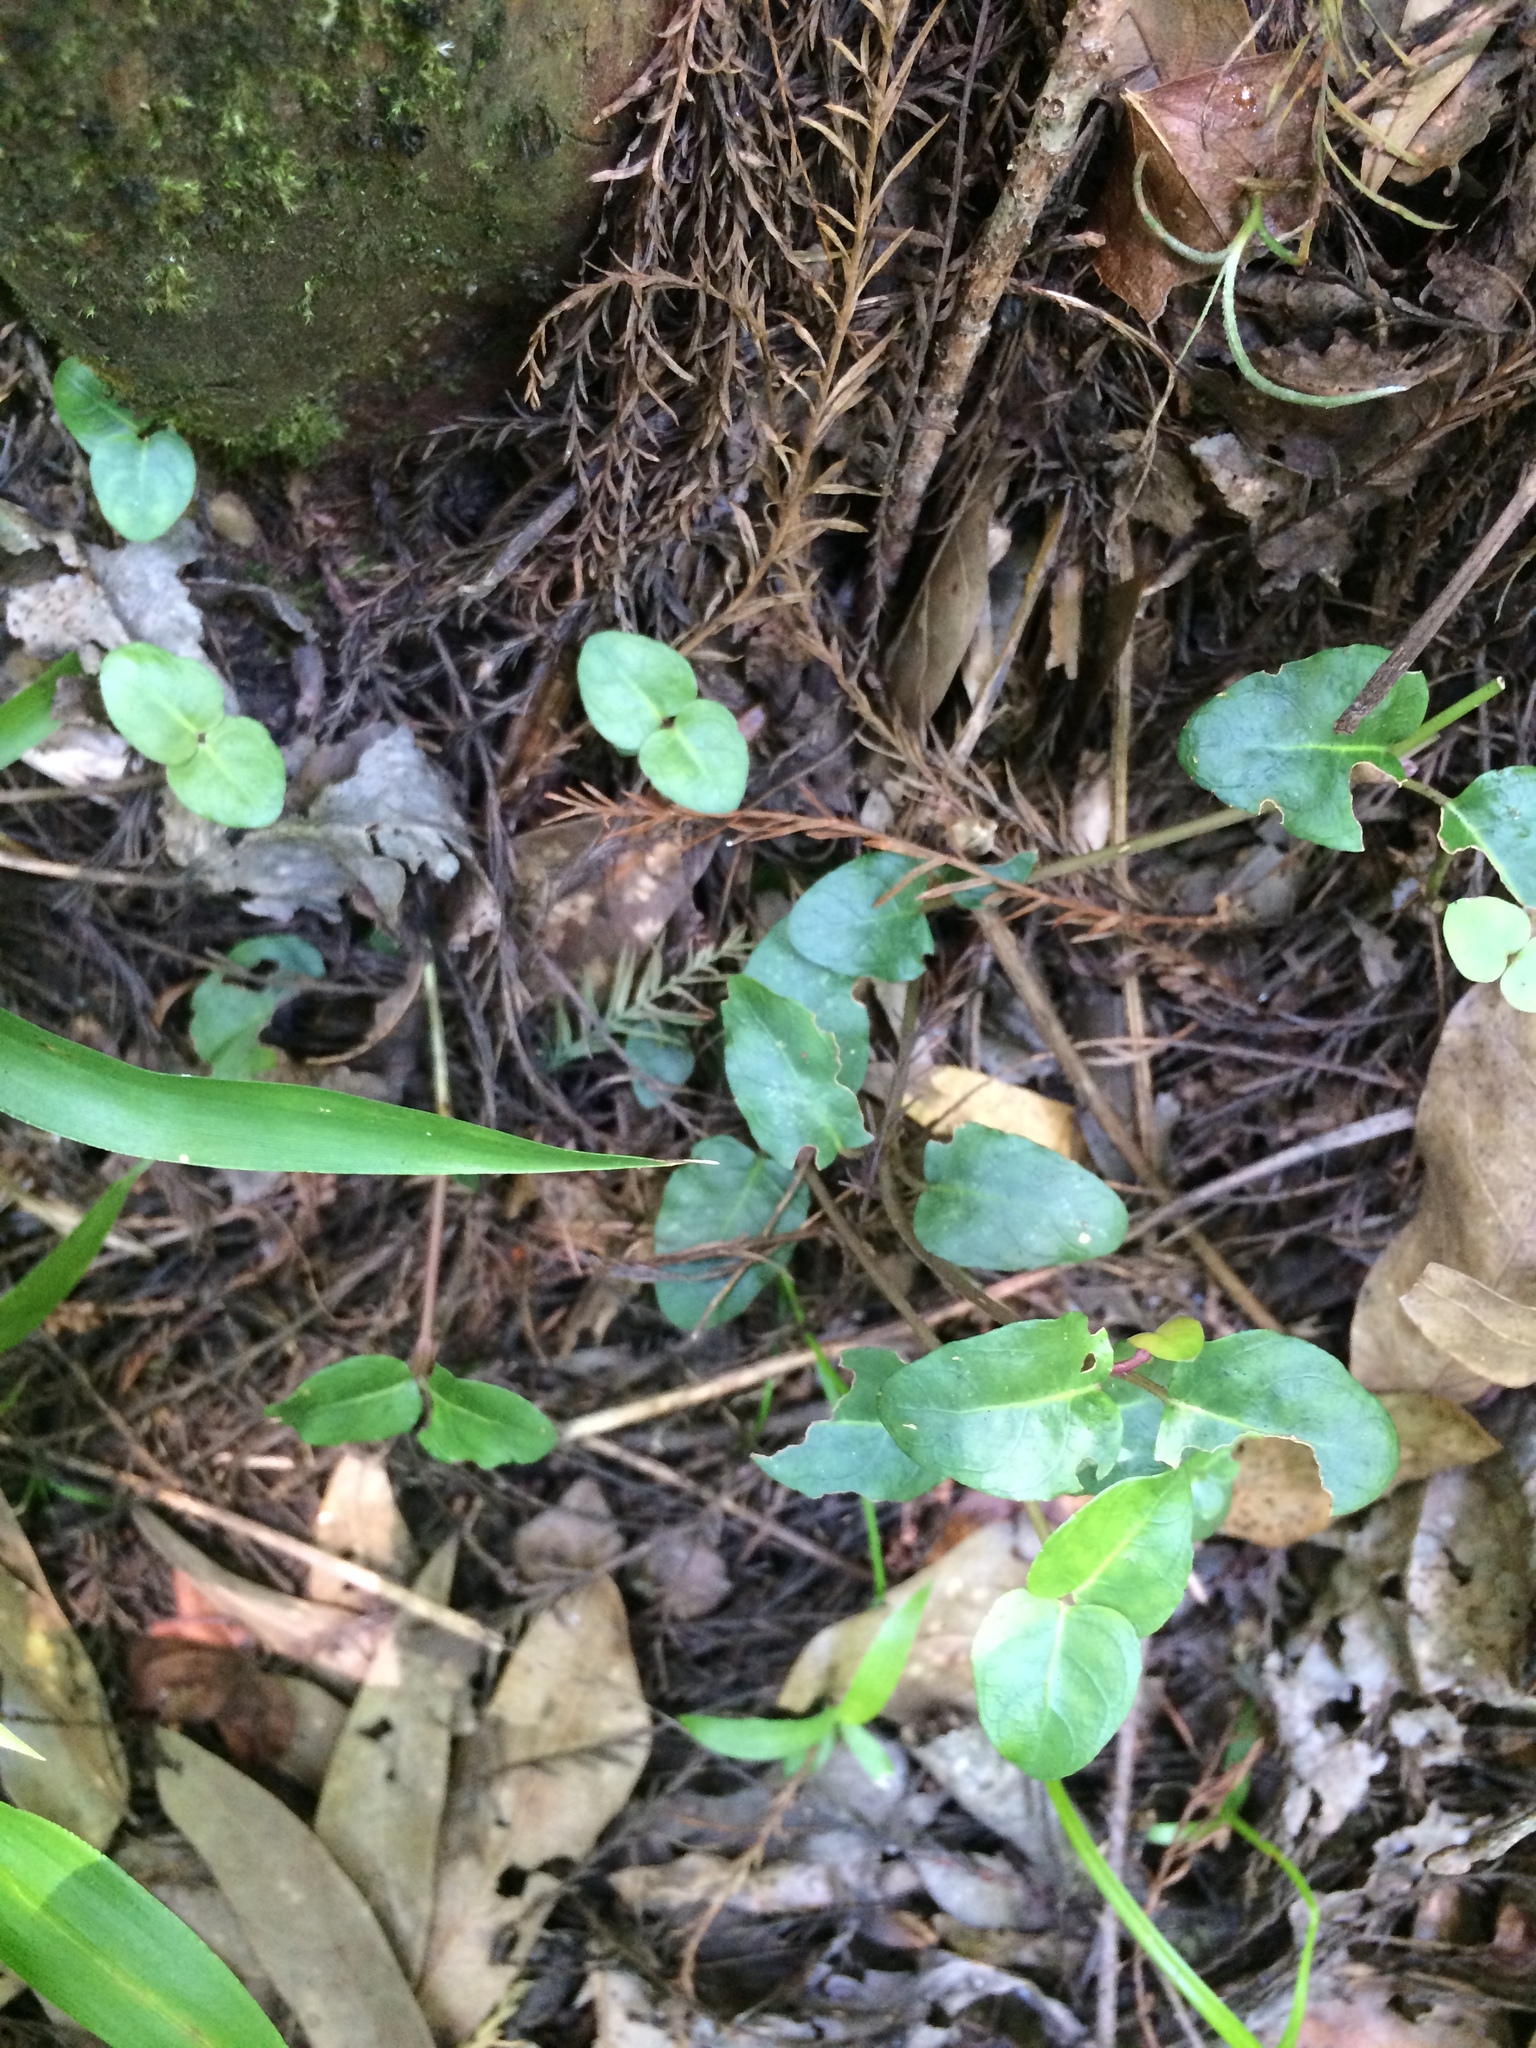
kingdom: Plantae
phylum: Tracheophyta
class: Magnoliopsida
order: Gentianales
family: Rubiaceae
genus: Mitchella
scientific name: Mitchella repens
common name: Partridge-berry
